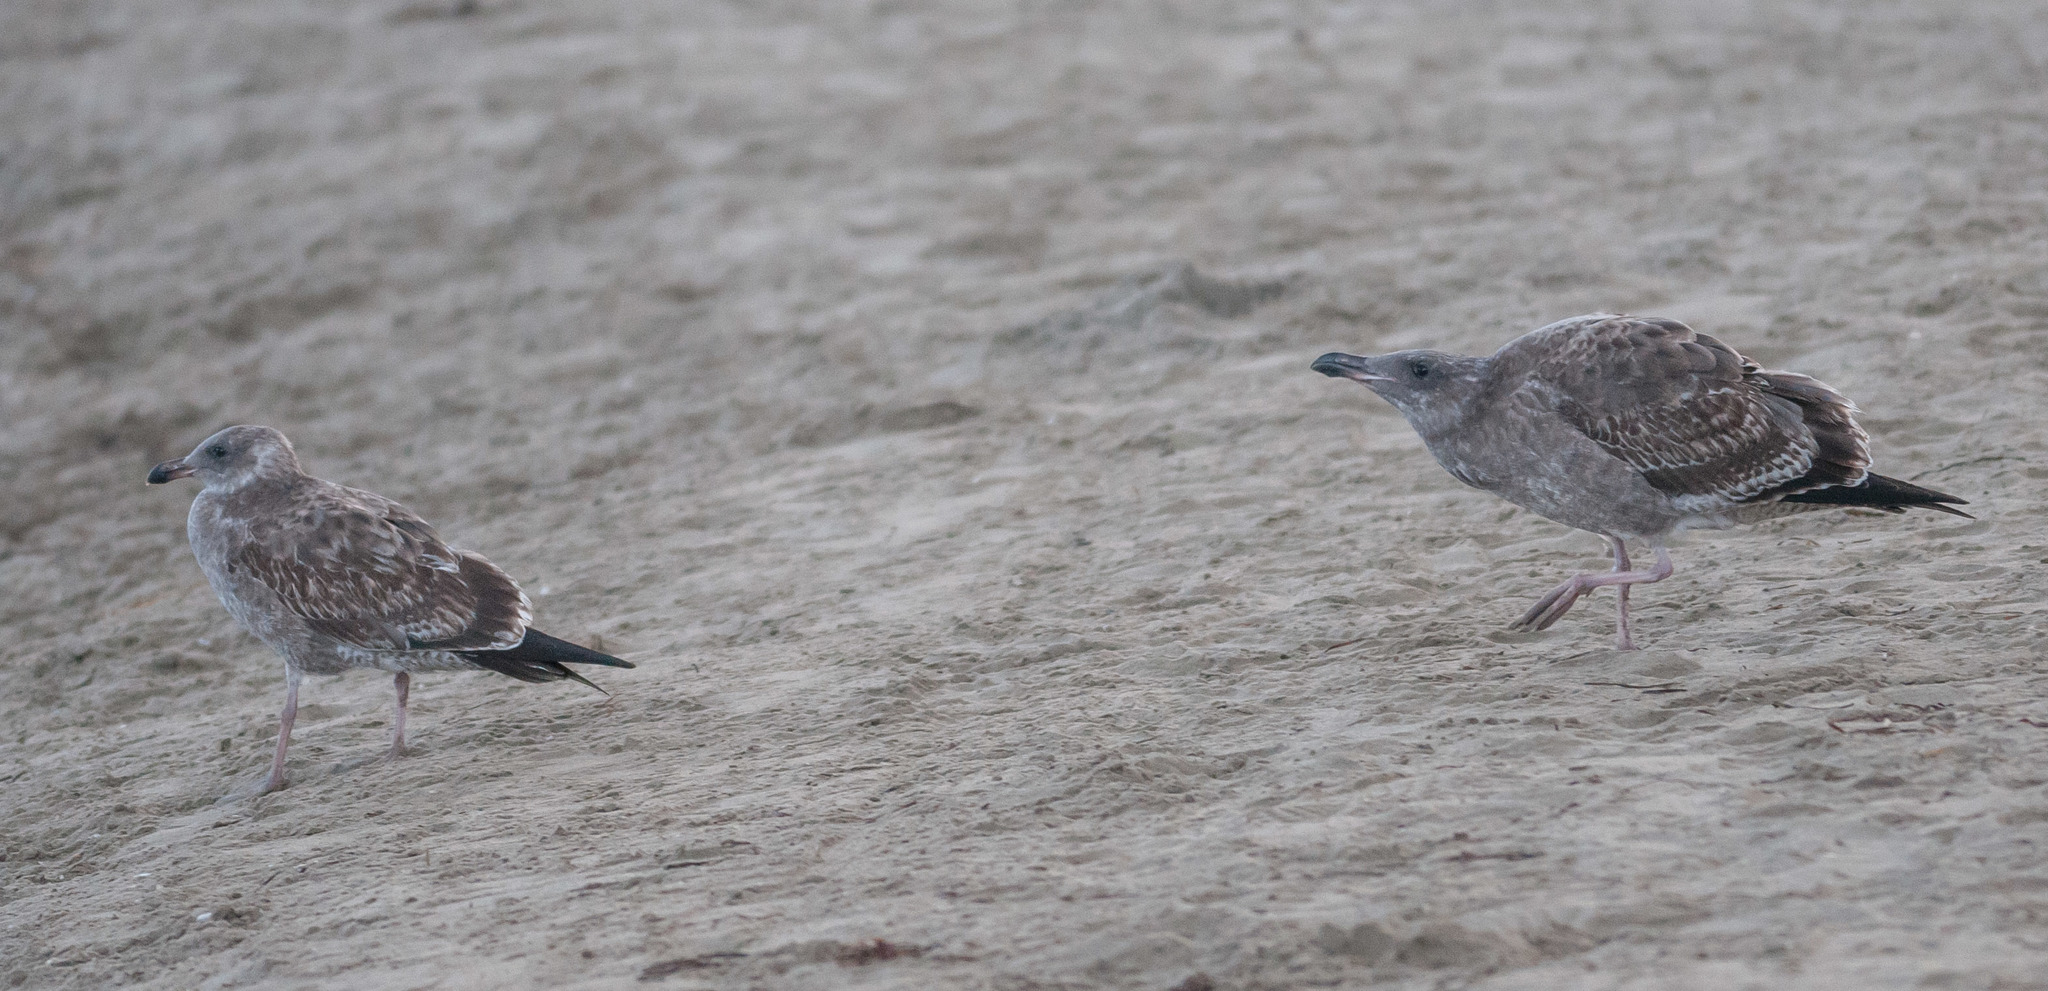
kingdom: Animalia
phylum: Chordata
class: Aves
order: Charadriiformes
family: Laridae
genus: Larus
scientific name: Larus occidentalis
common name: Western gull
